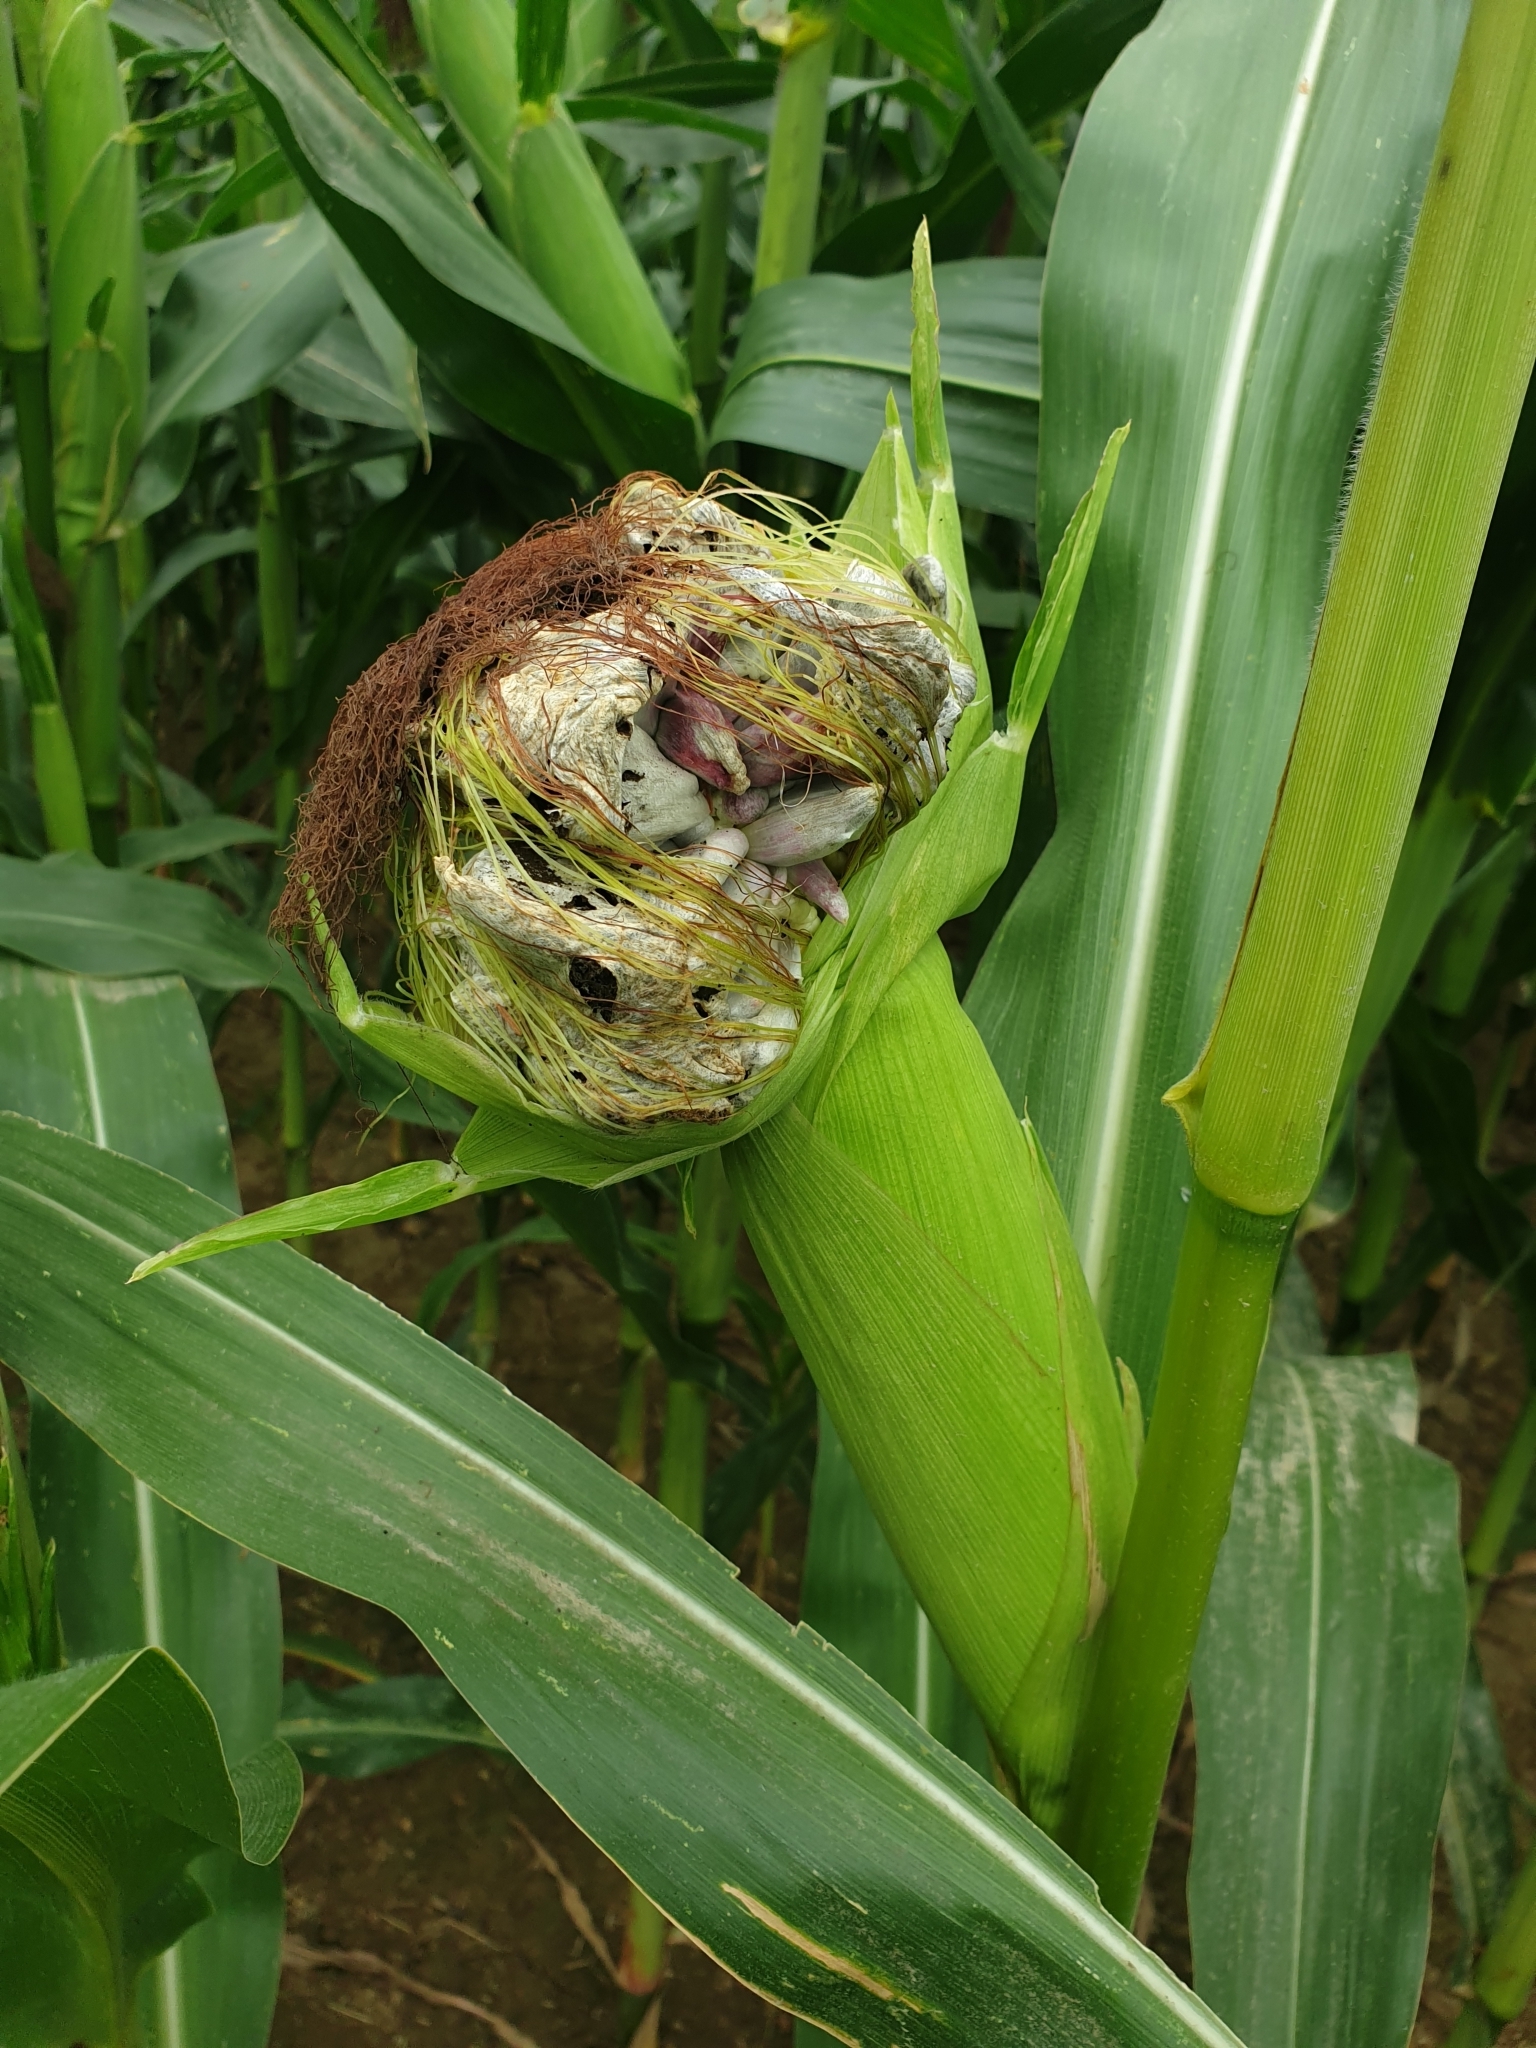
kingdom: Fungi
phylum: Basidiomycota
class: Ustilaginomycetes
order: Ustilaginales
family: Ustilaginaceae
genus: Mycosarcoma
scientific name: Mycosarcoma maydis
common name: Corn smut
